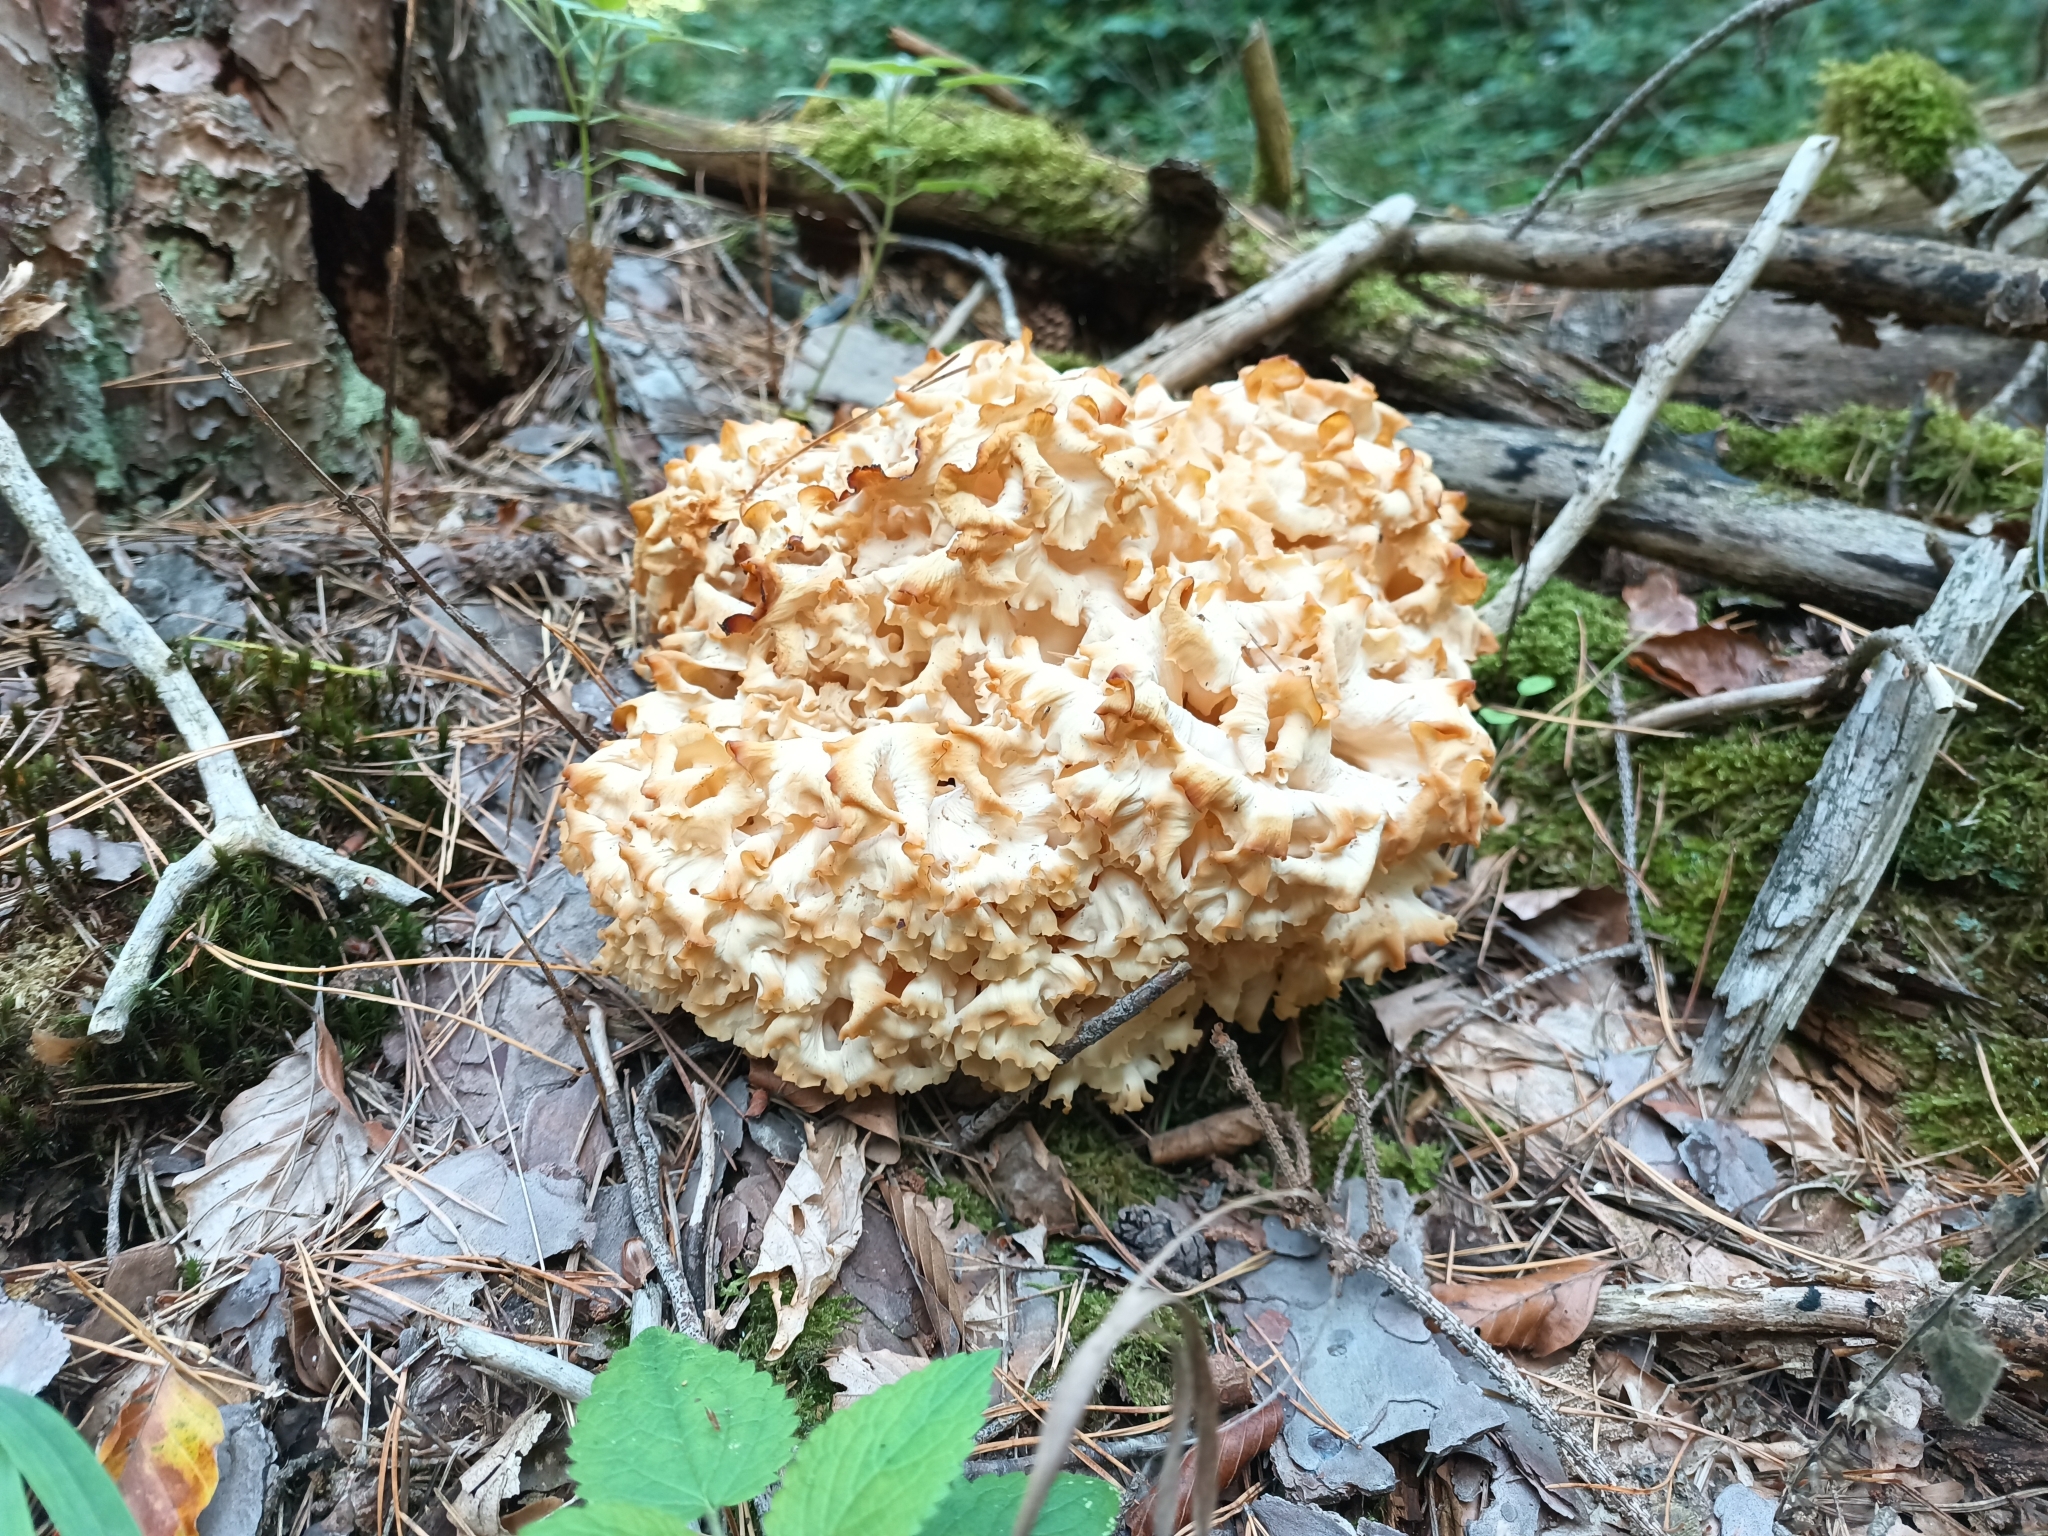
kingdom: Fungi
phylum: Basidiomycota
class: Agaricomycetes
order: Polyporales
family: Sparassidaceae
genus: Sparassis
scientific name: Sparassis crispa
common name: Brain fungus
